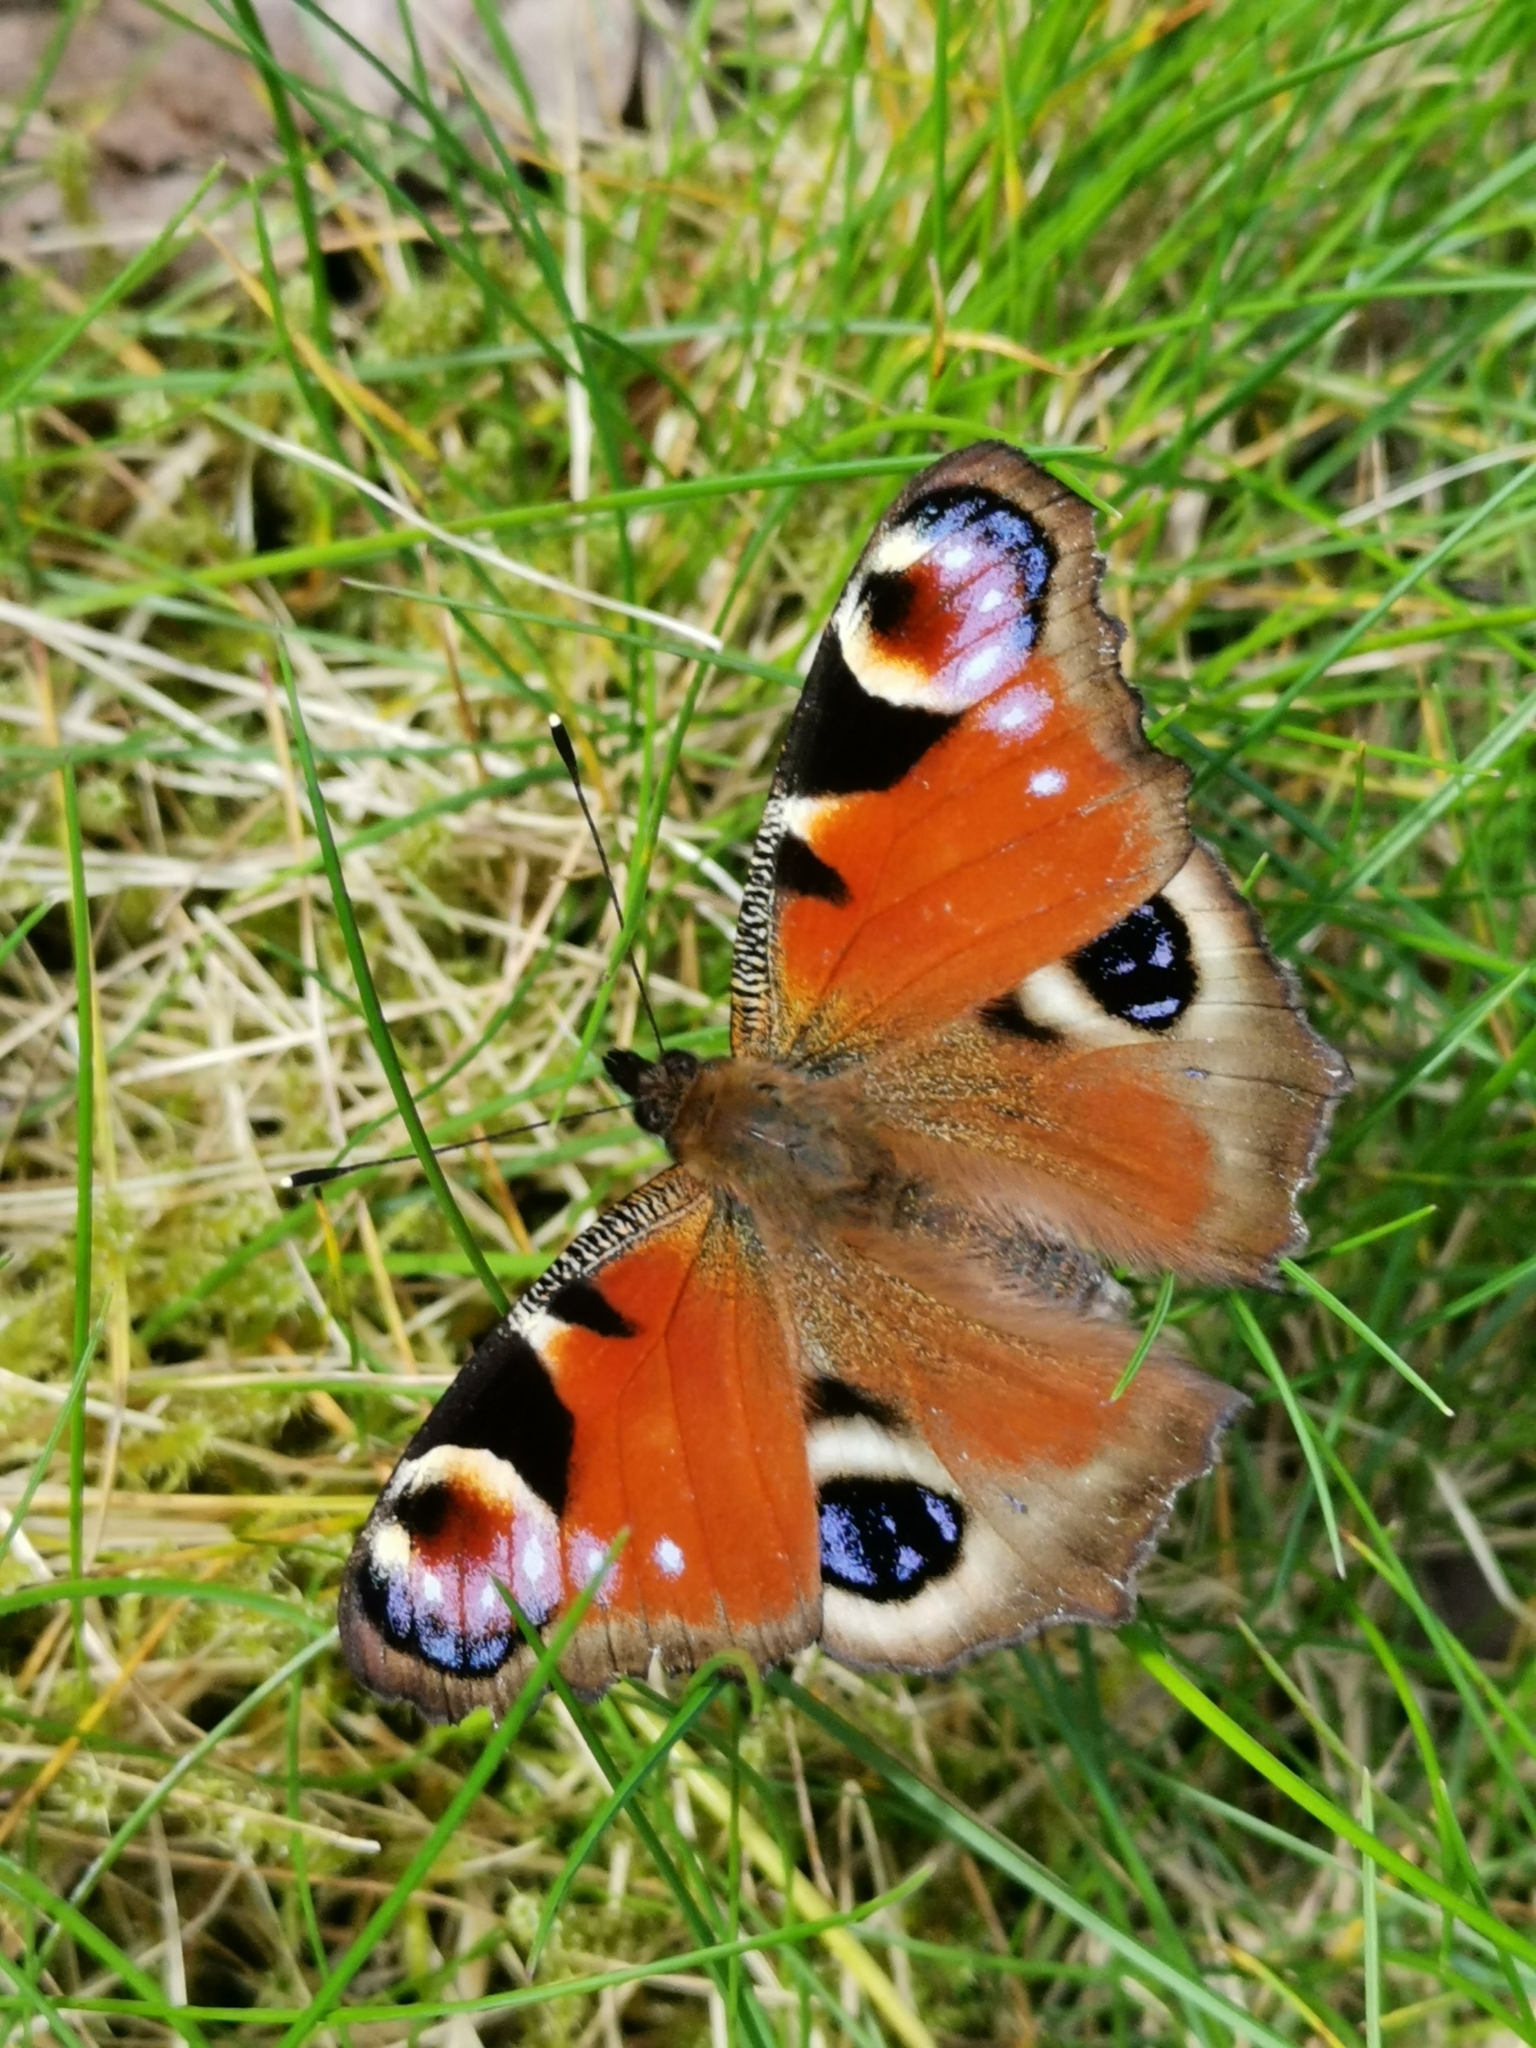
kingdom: Animalia
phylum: Arthropoda
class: Insecta
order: Lepidoptera
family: Nymphalidae
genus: Aglais
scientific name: Aglais io
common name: Peacock
